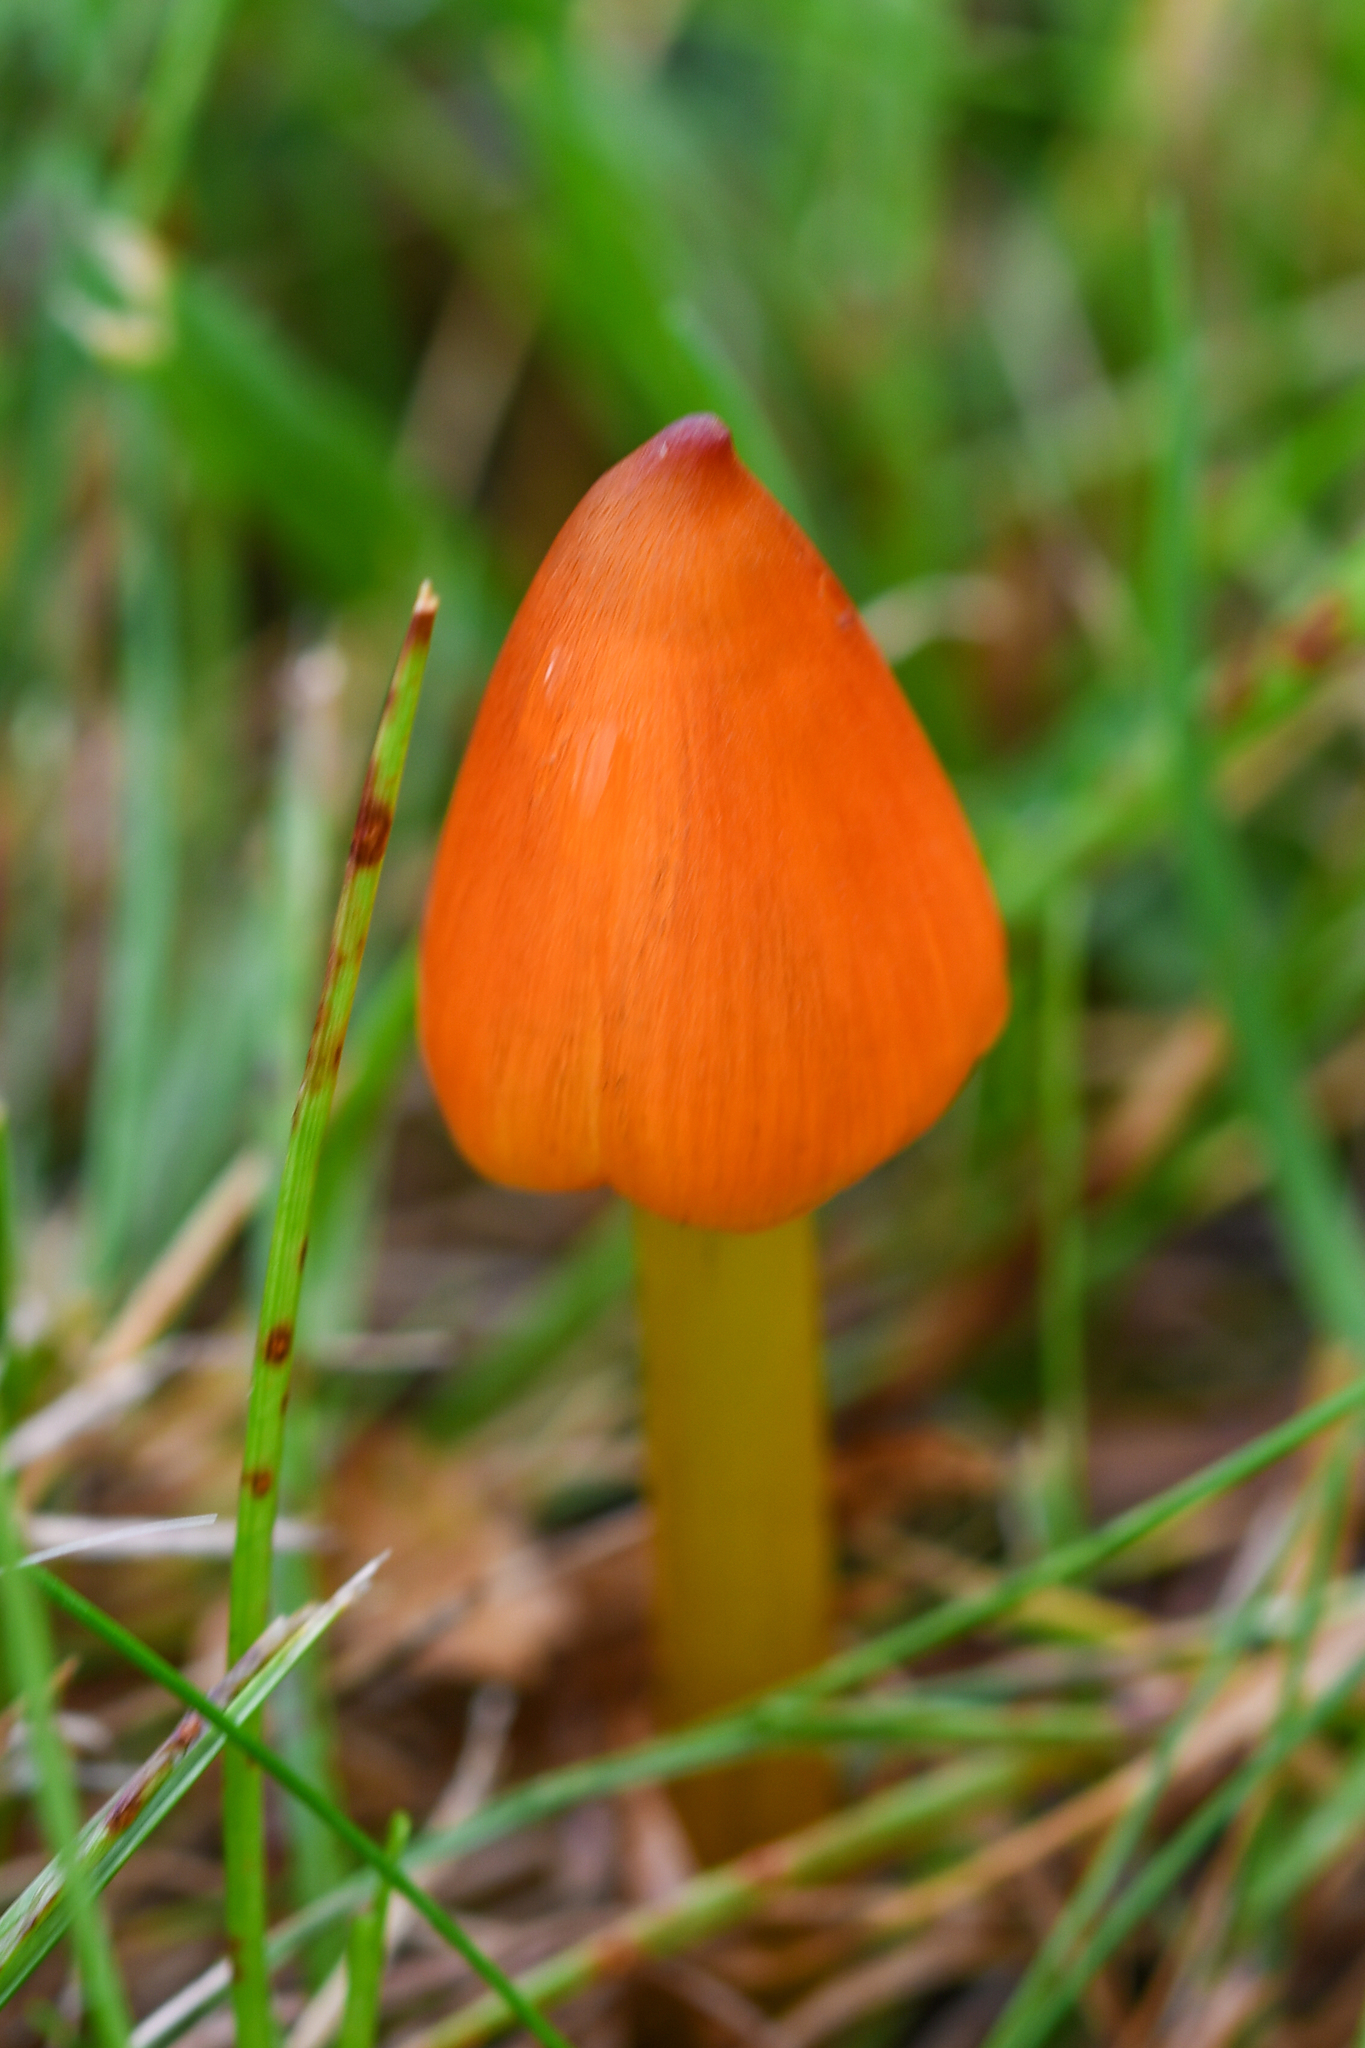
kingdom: Fungi
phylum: Basidiomycota
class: Agaricomycetes
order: Agaricales
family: Hygrophoraceae
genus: Hygrocybe
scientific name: Hygrocybe conica
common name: Blackening wax-cap
